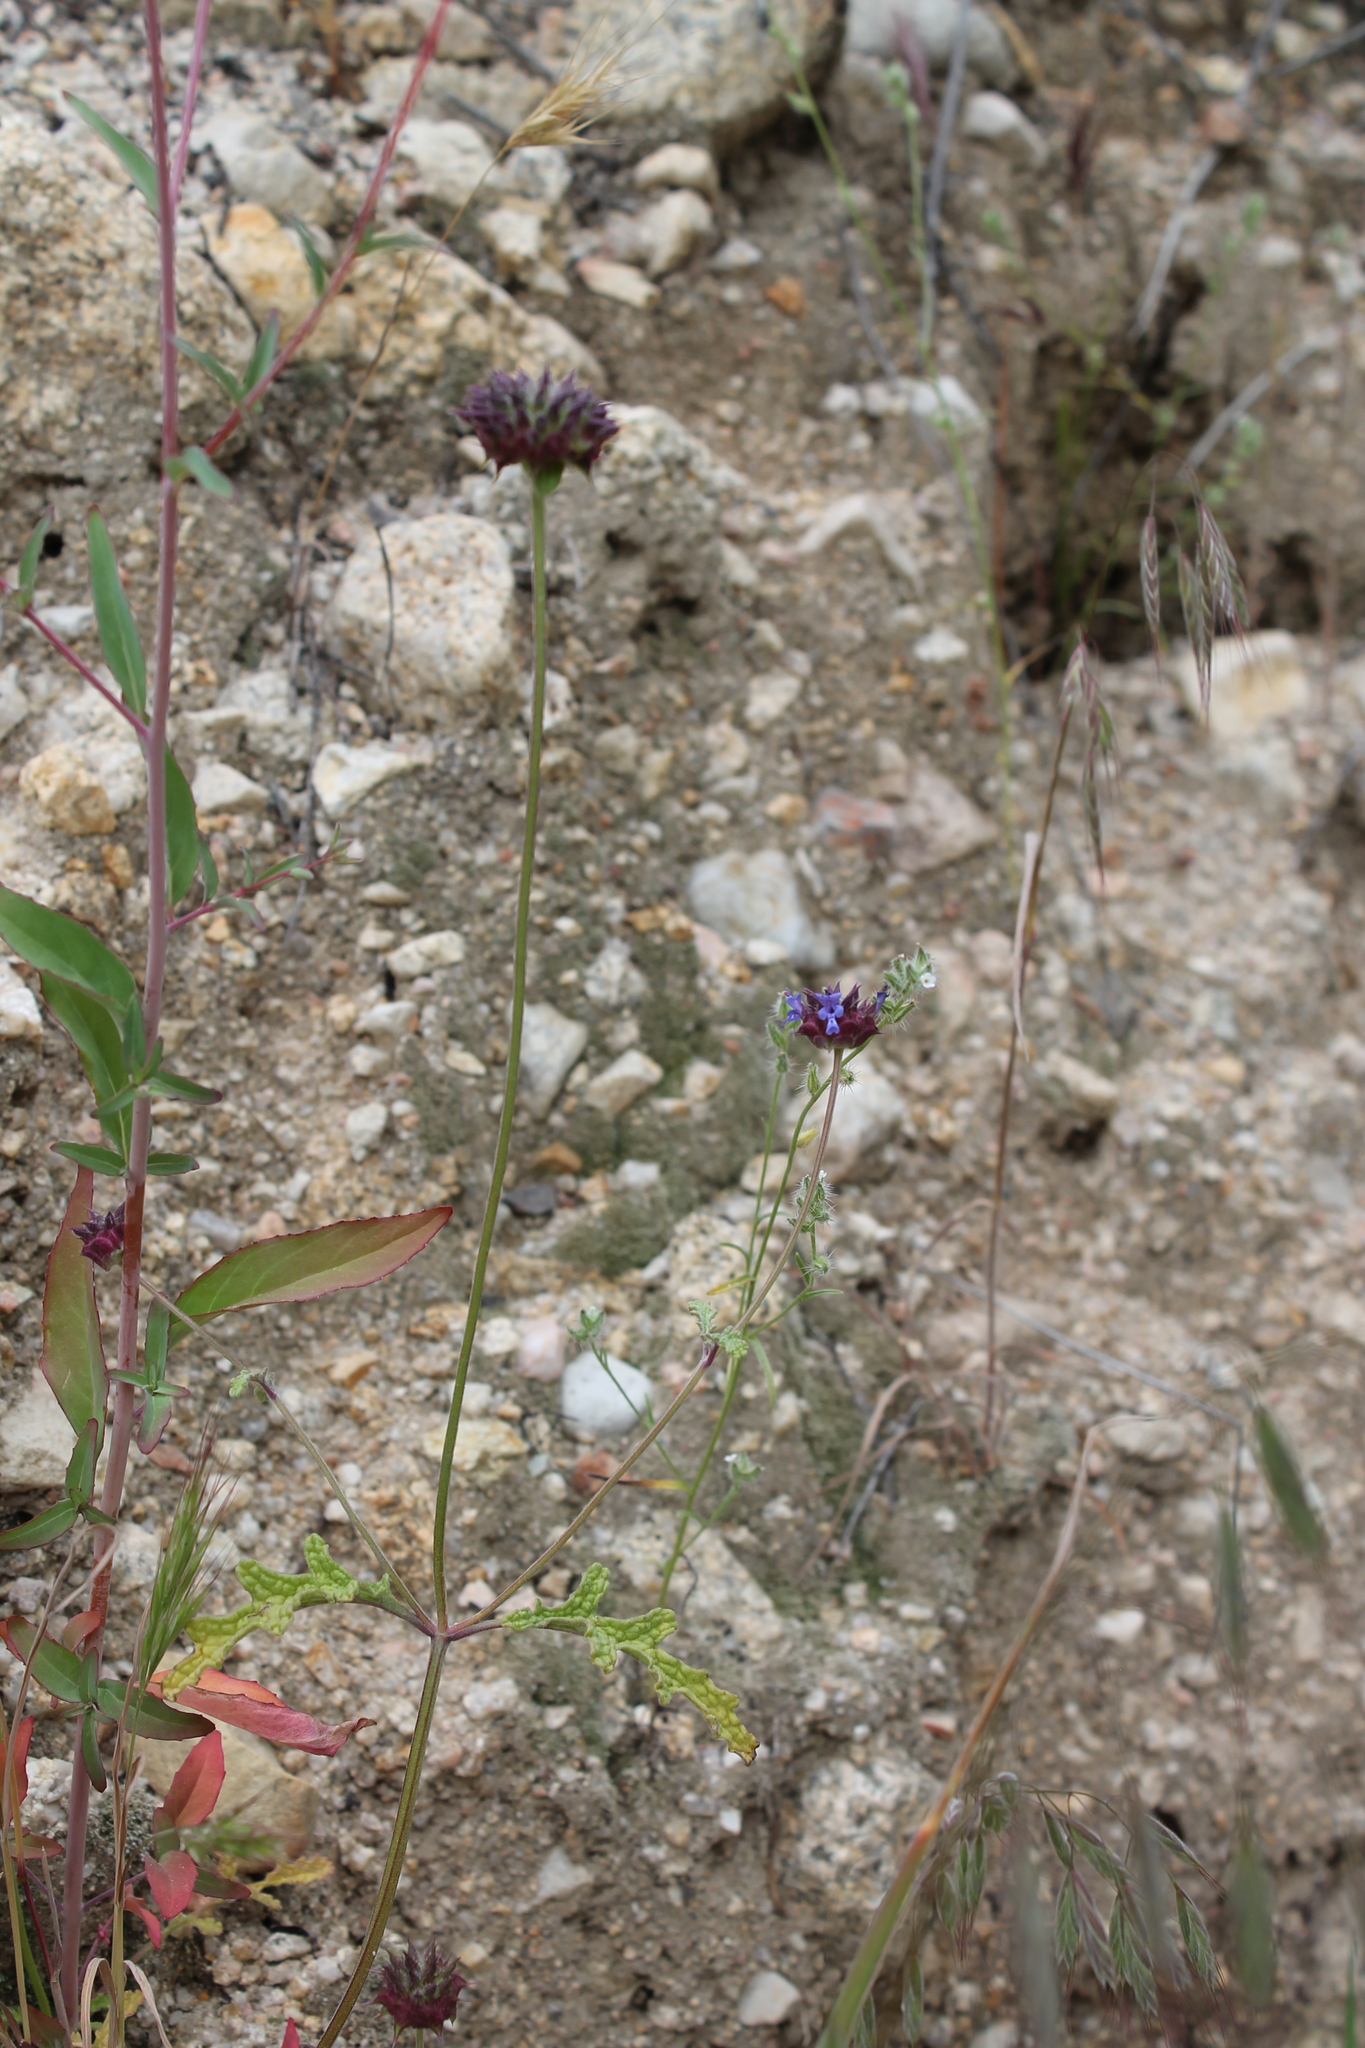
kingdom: Plantae
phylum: Tracheophyta
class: Magnoliopsida
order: Lamiales
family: Lamiaceae
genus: Salvia
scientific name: Salvia columbariae
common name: Chia
